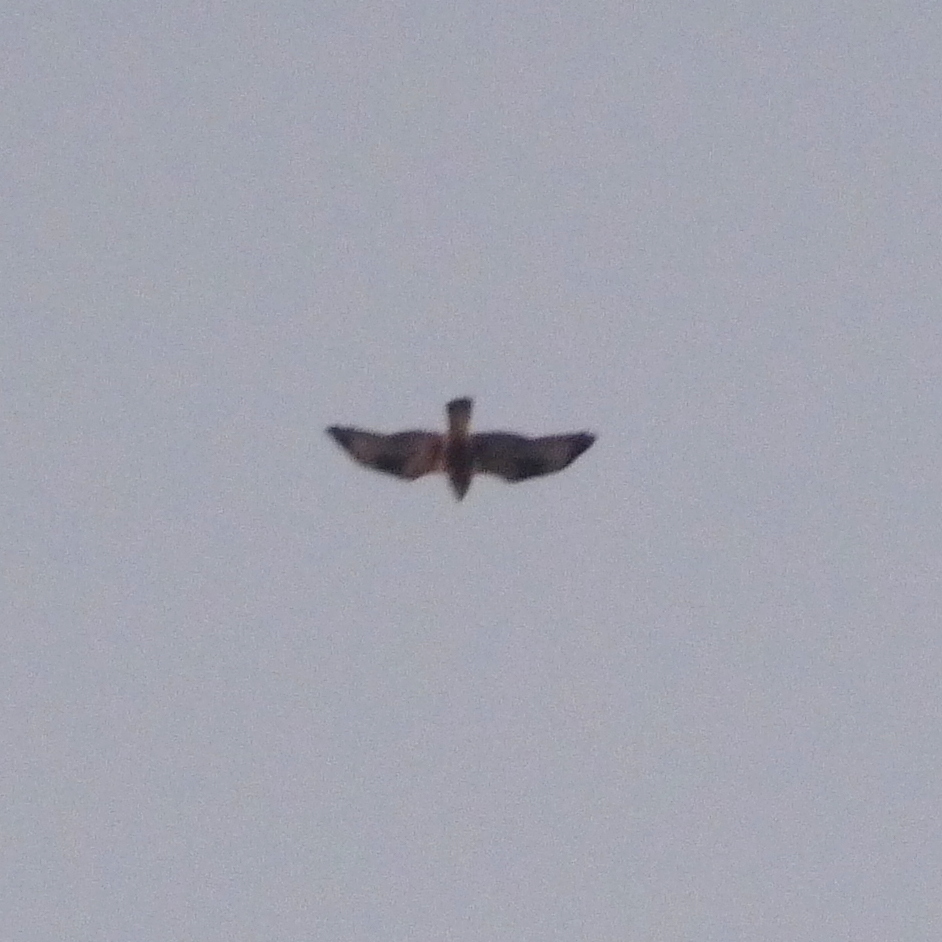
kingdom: Animalia
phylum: Chordata
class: Aves
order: Accipitriformes
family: Accipitridae
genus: Buteo
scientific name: Buteo lagopus
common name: Rough-legged buzzard
